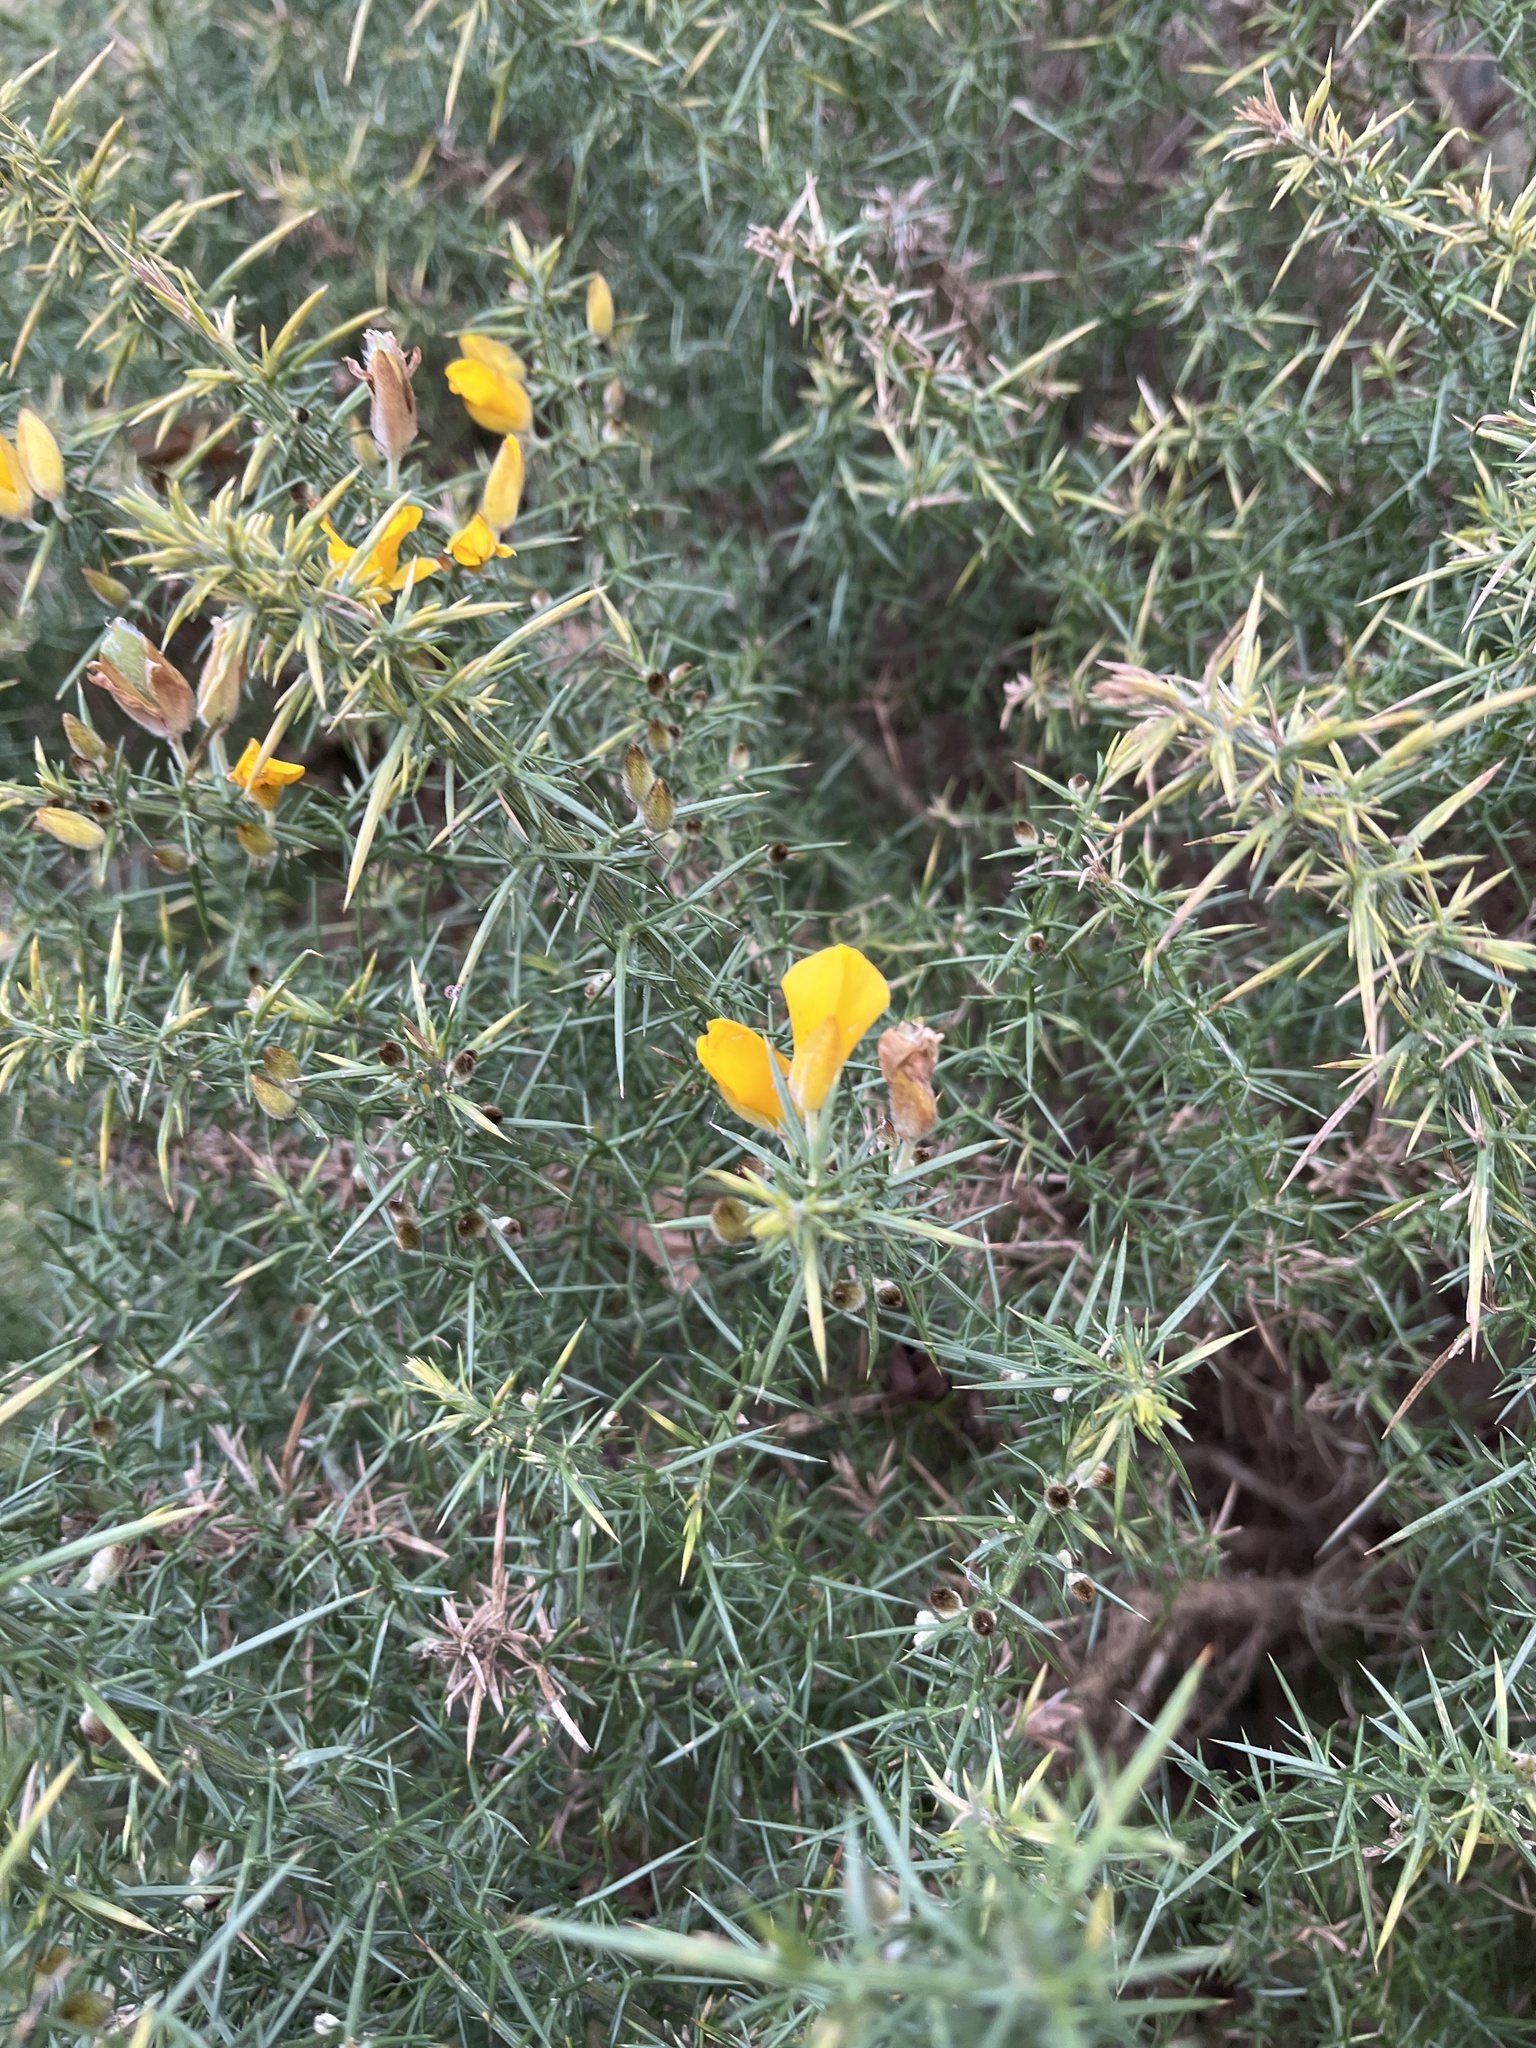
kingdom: Plantae
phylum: Tracheophyta
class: Magnoliopsida
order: Fabales
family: Fabaceae
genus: Ulex
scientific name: Ulex europaeus
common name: Common gorse
